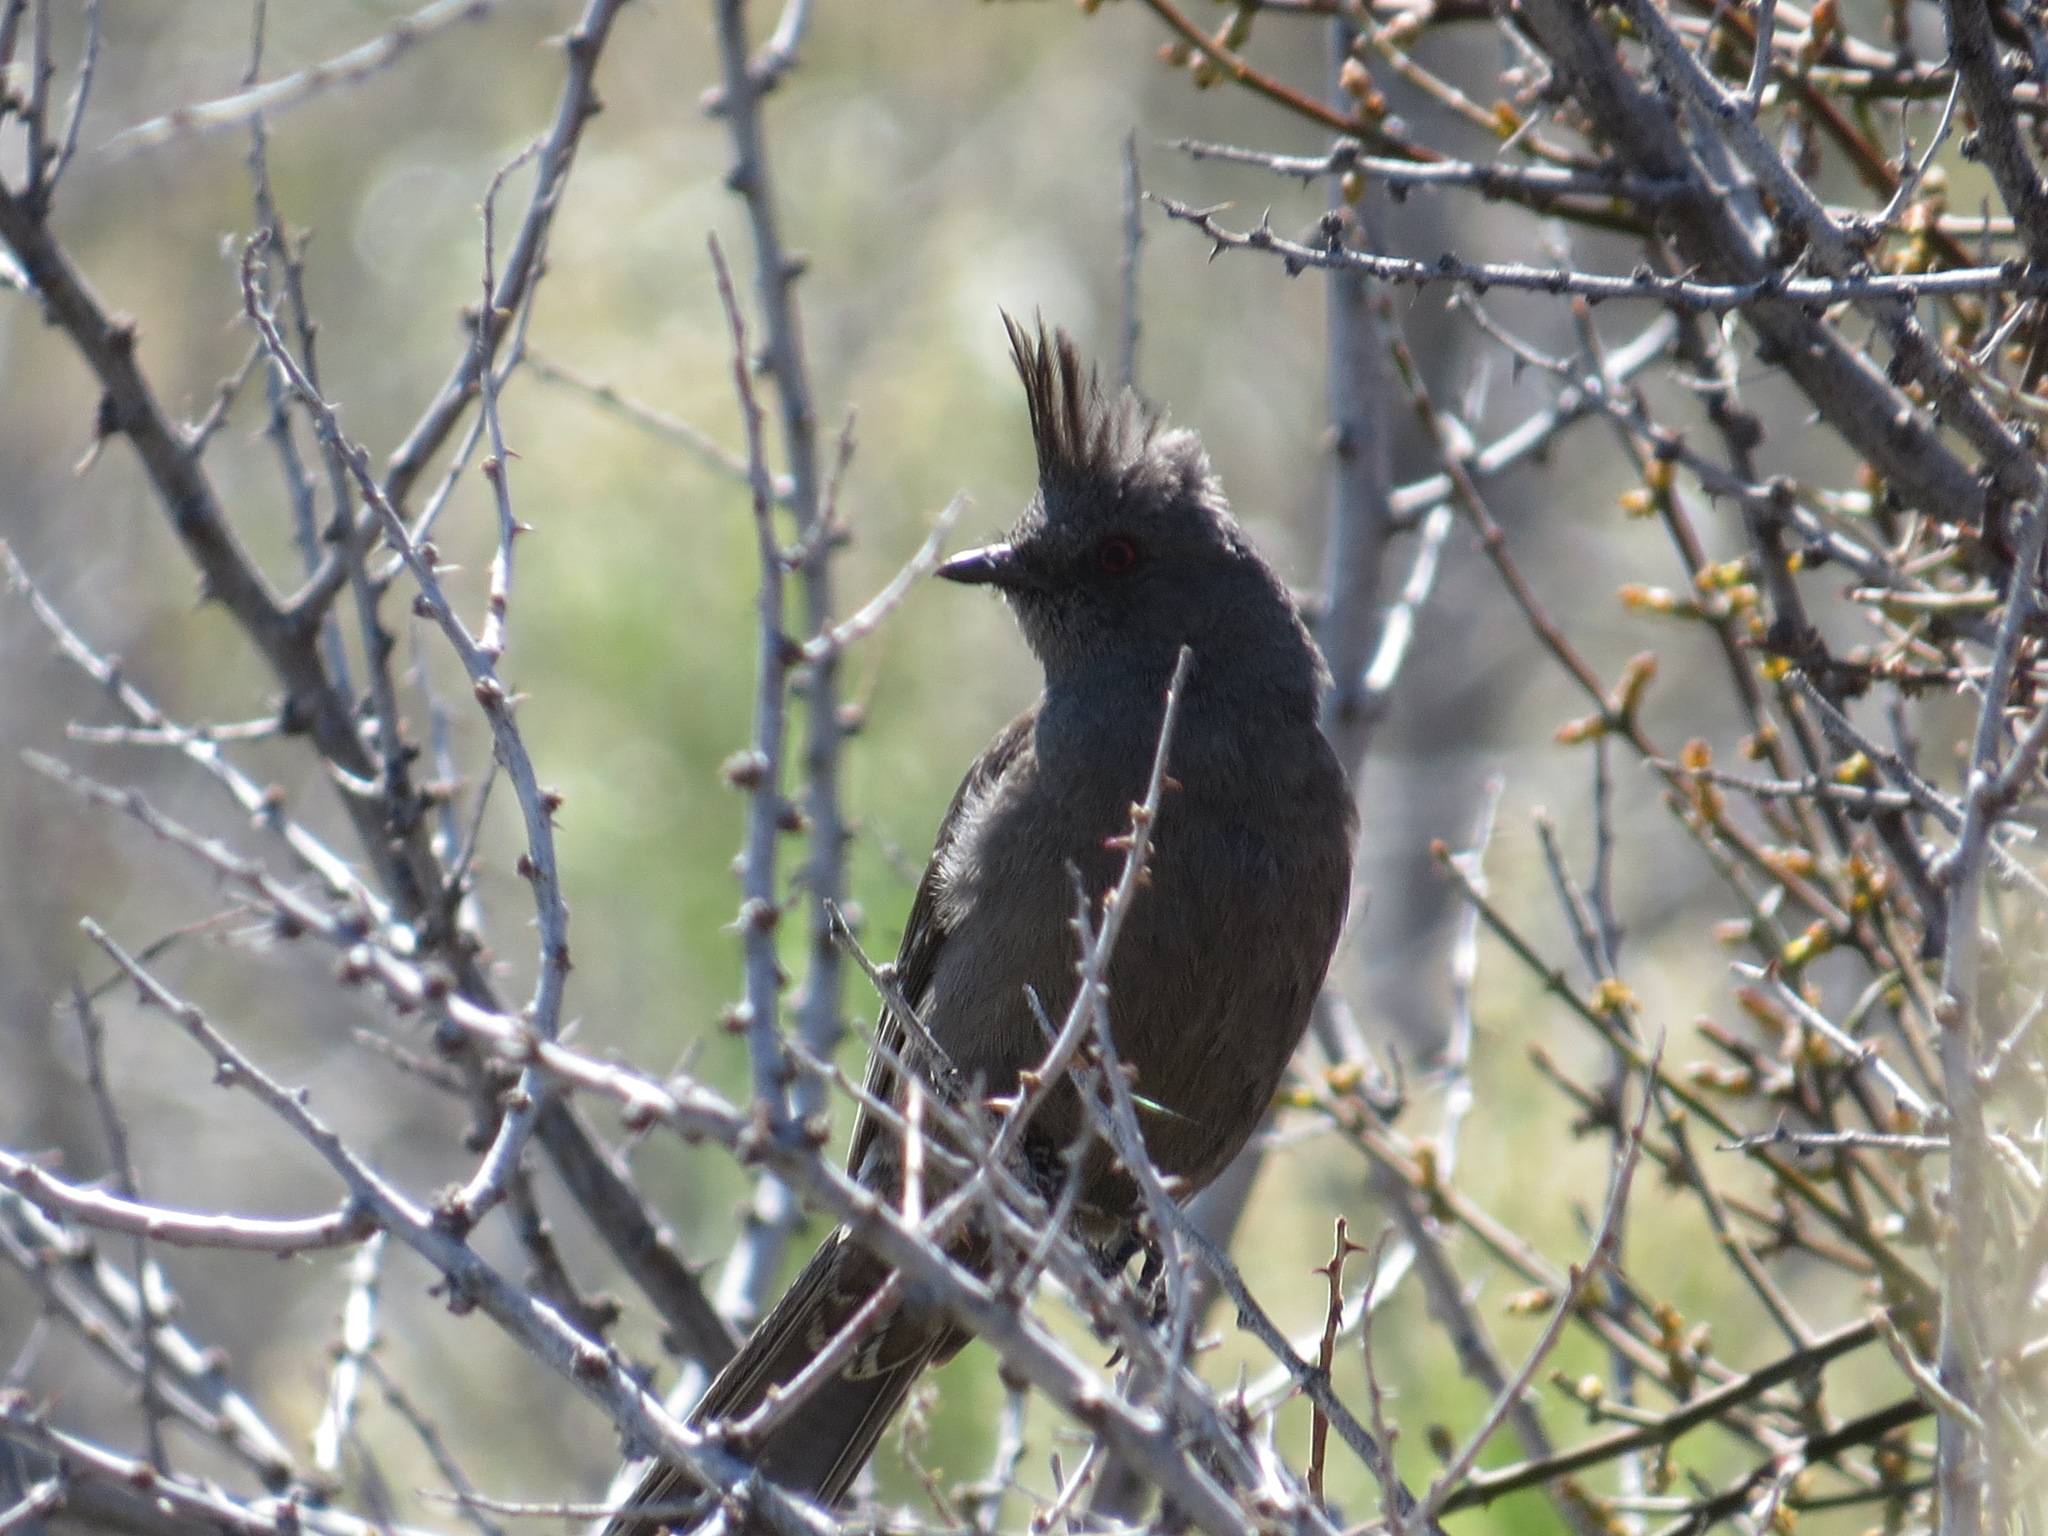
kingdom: Animalia
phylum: Chordata
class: Aves
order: Passeriformes
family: Ptilogonatidae
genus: Phainopepla
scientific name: Phainopepla nitens
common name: Phainopepla
